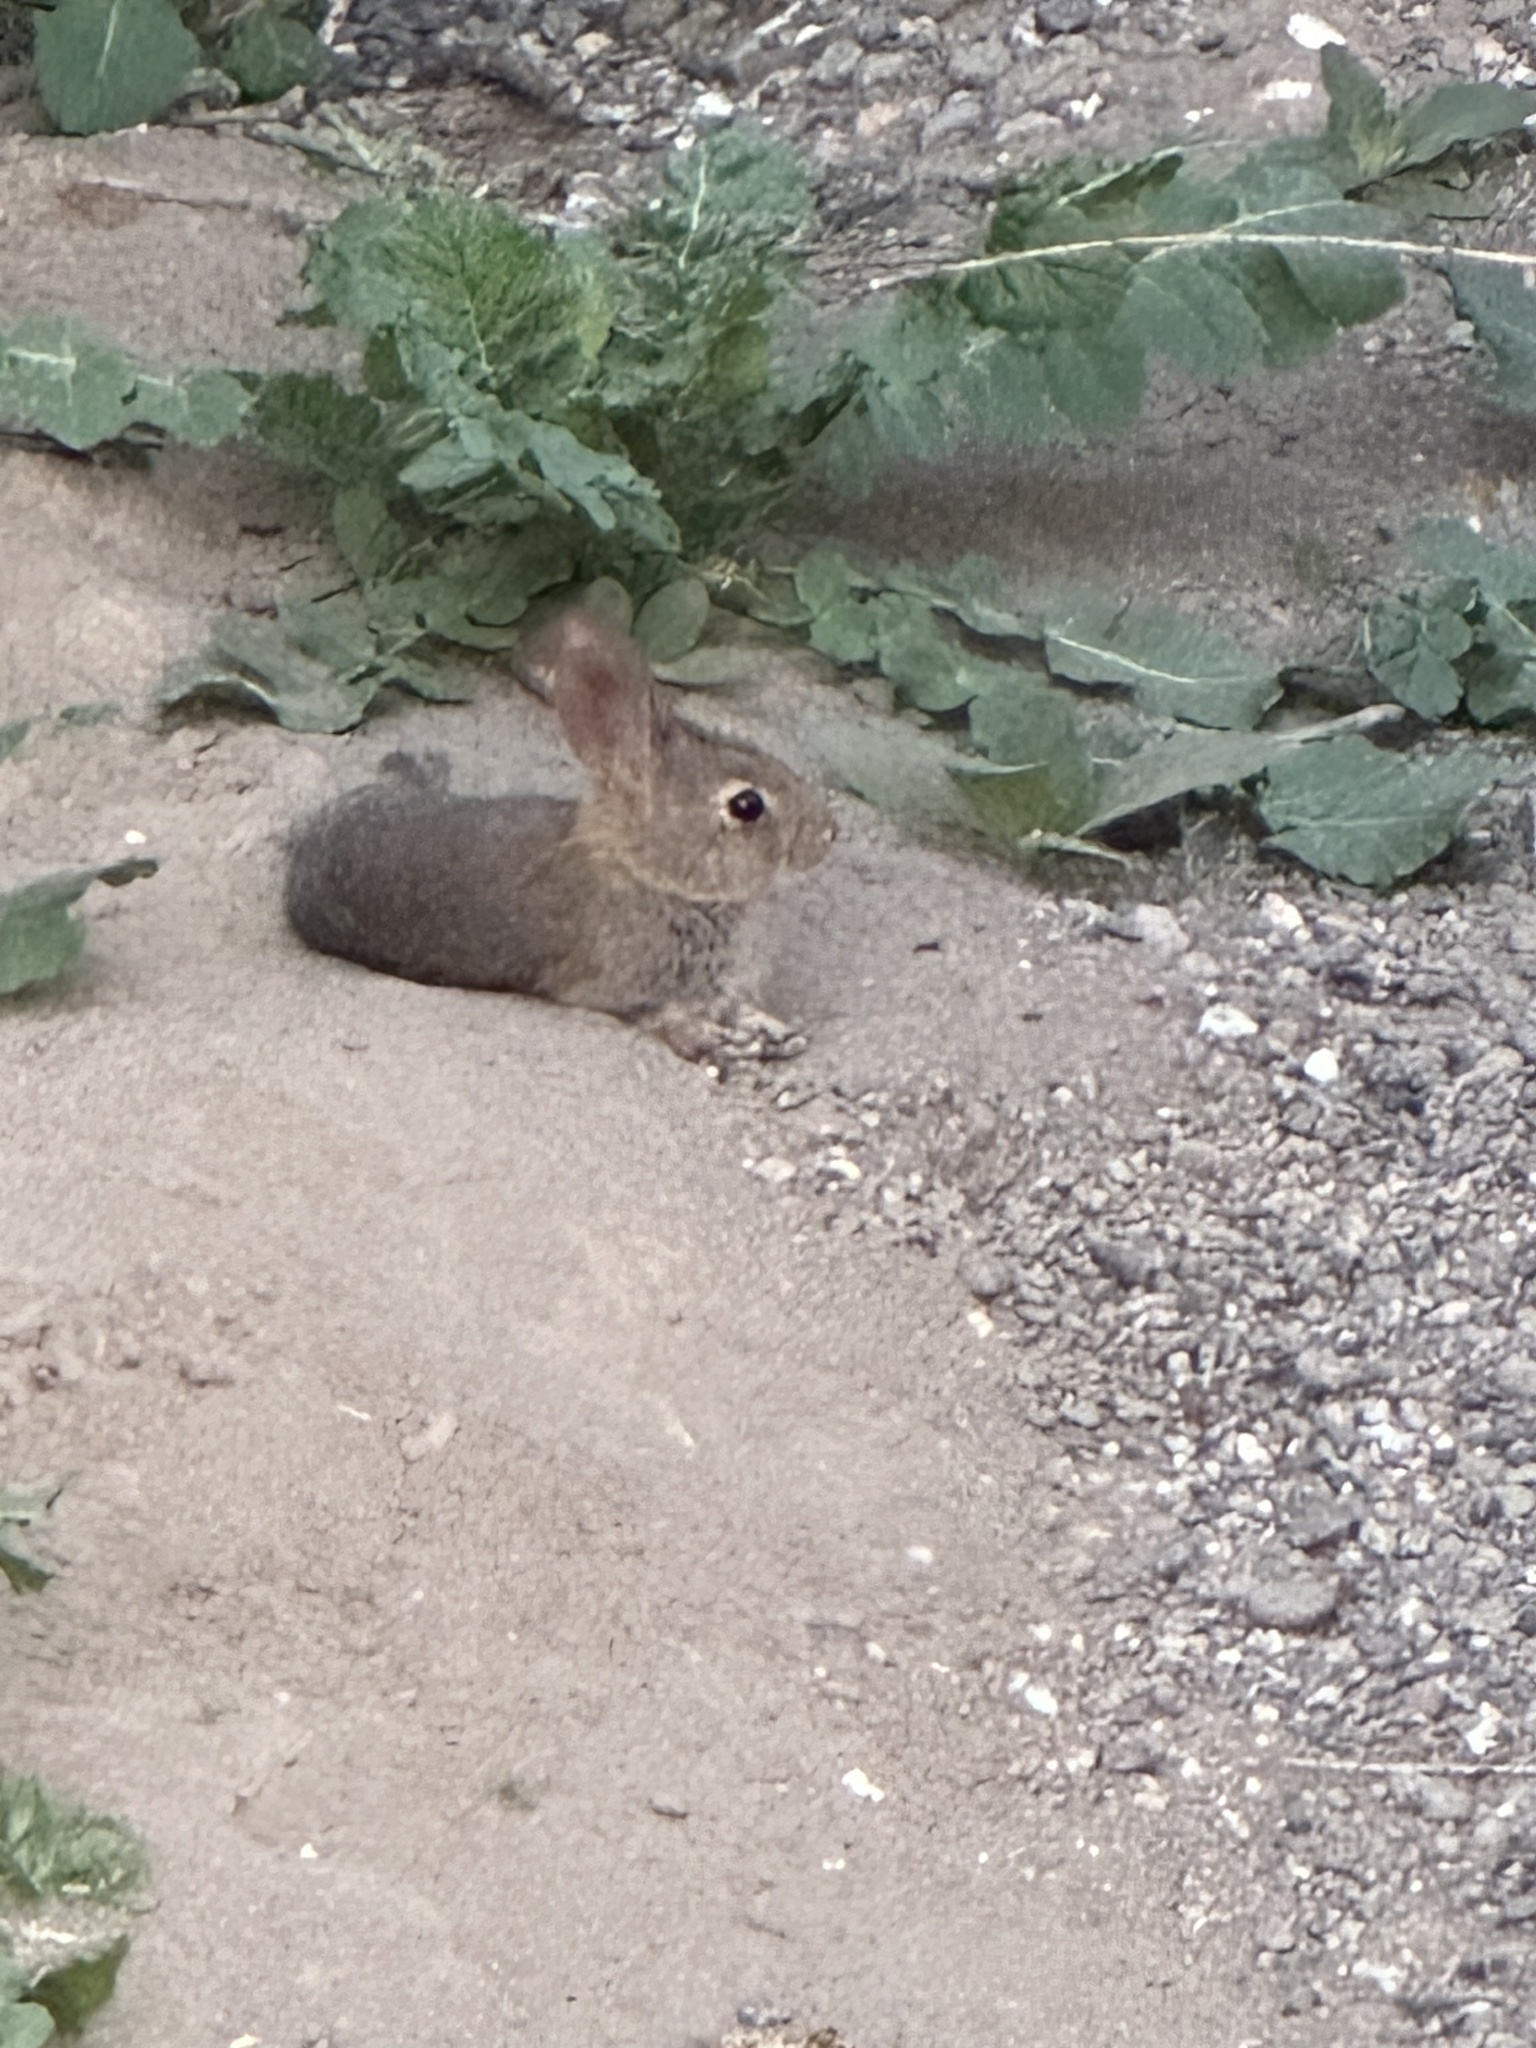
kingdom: Animalia
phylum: Chordata
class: Mammalia
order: Lagomorpha
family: Leporidae
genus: Sylvilagus
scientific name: Sylvilagus bachmani
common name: Brush rabbit
